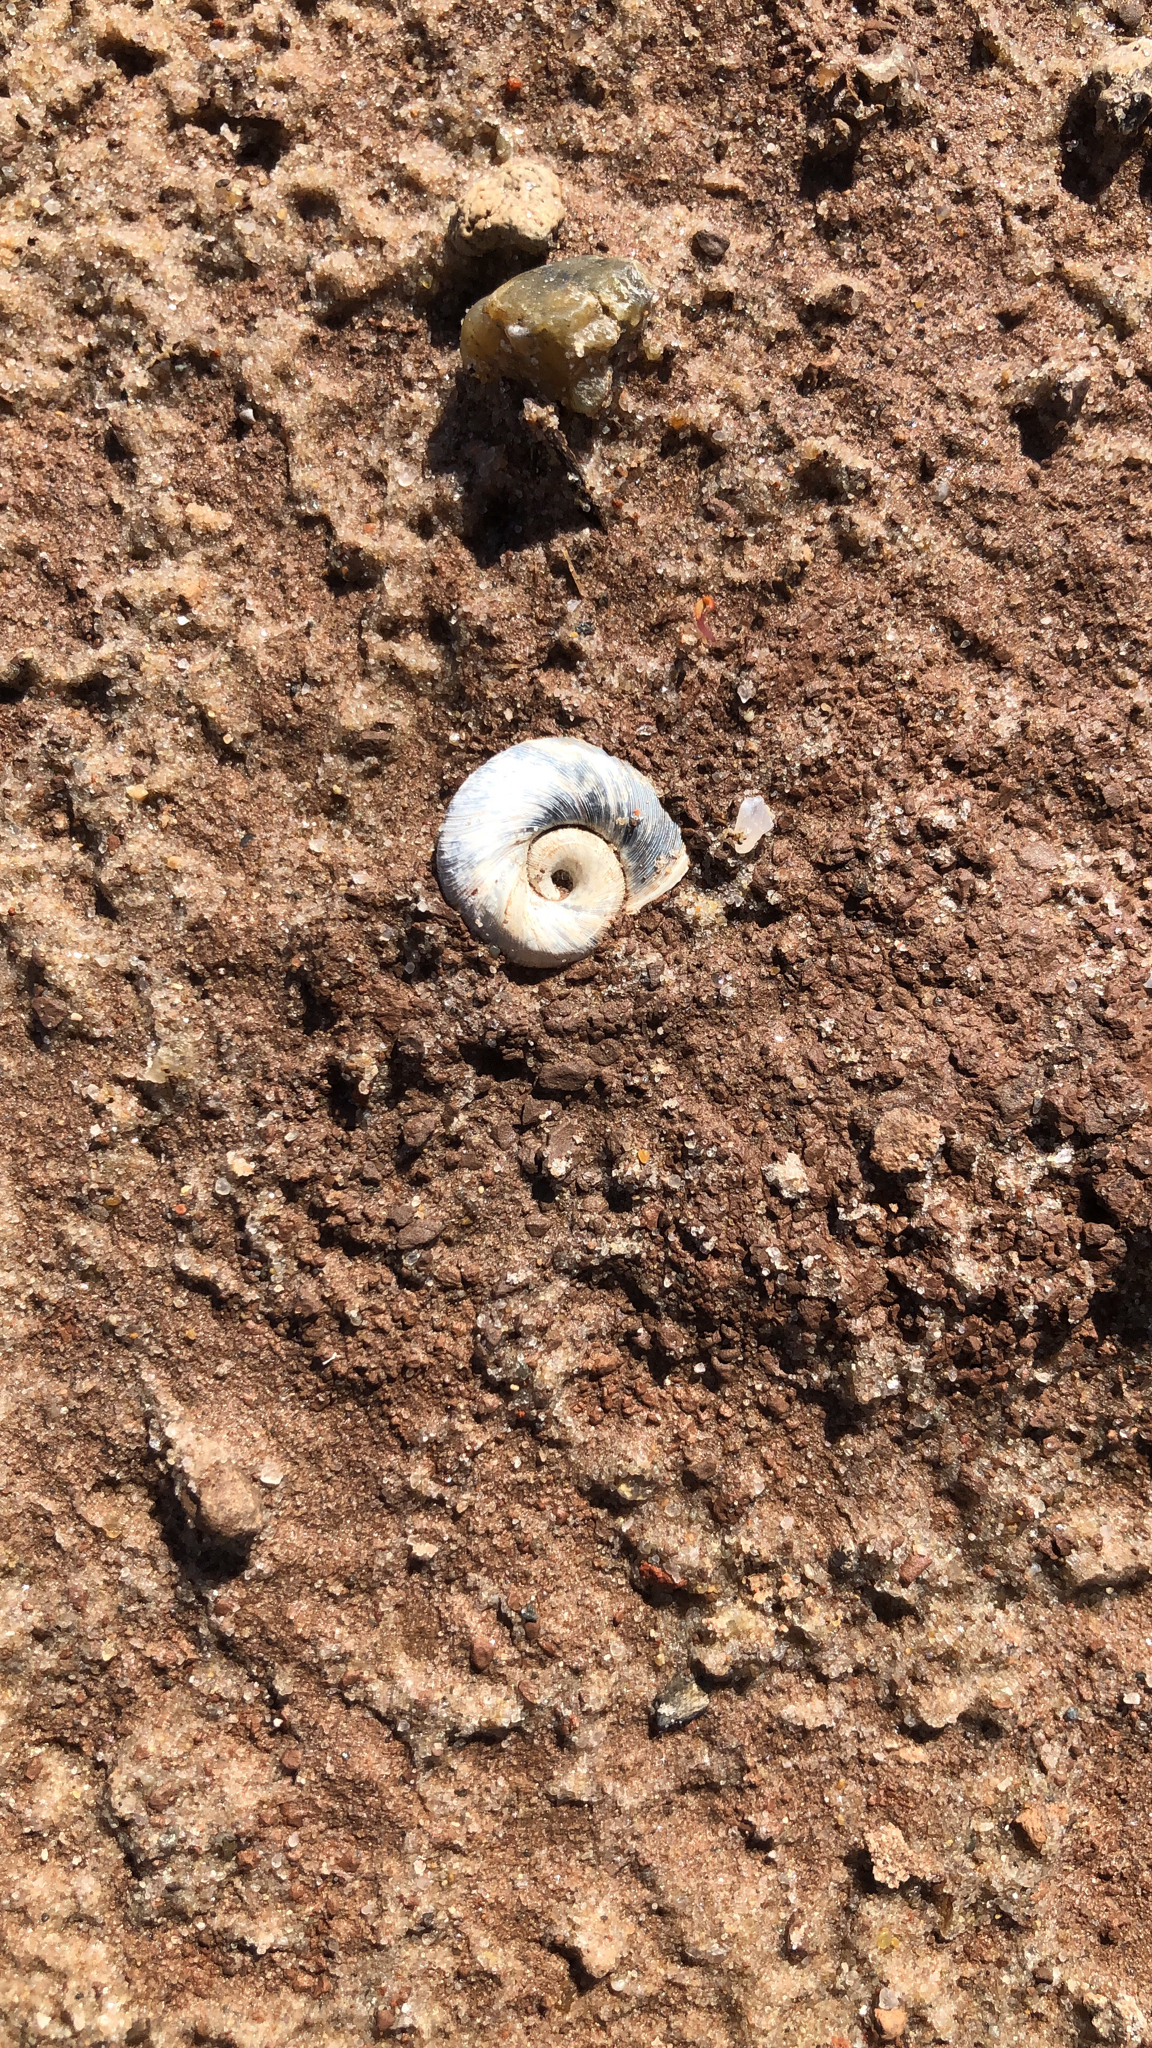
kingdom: Animalia
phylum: Mollusca
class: Gastropoda
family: Planorbidae
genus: Planorbella
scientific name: Planorbella trivolvis
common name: Marsh rams-horn
